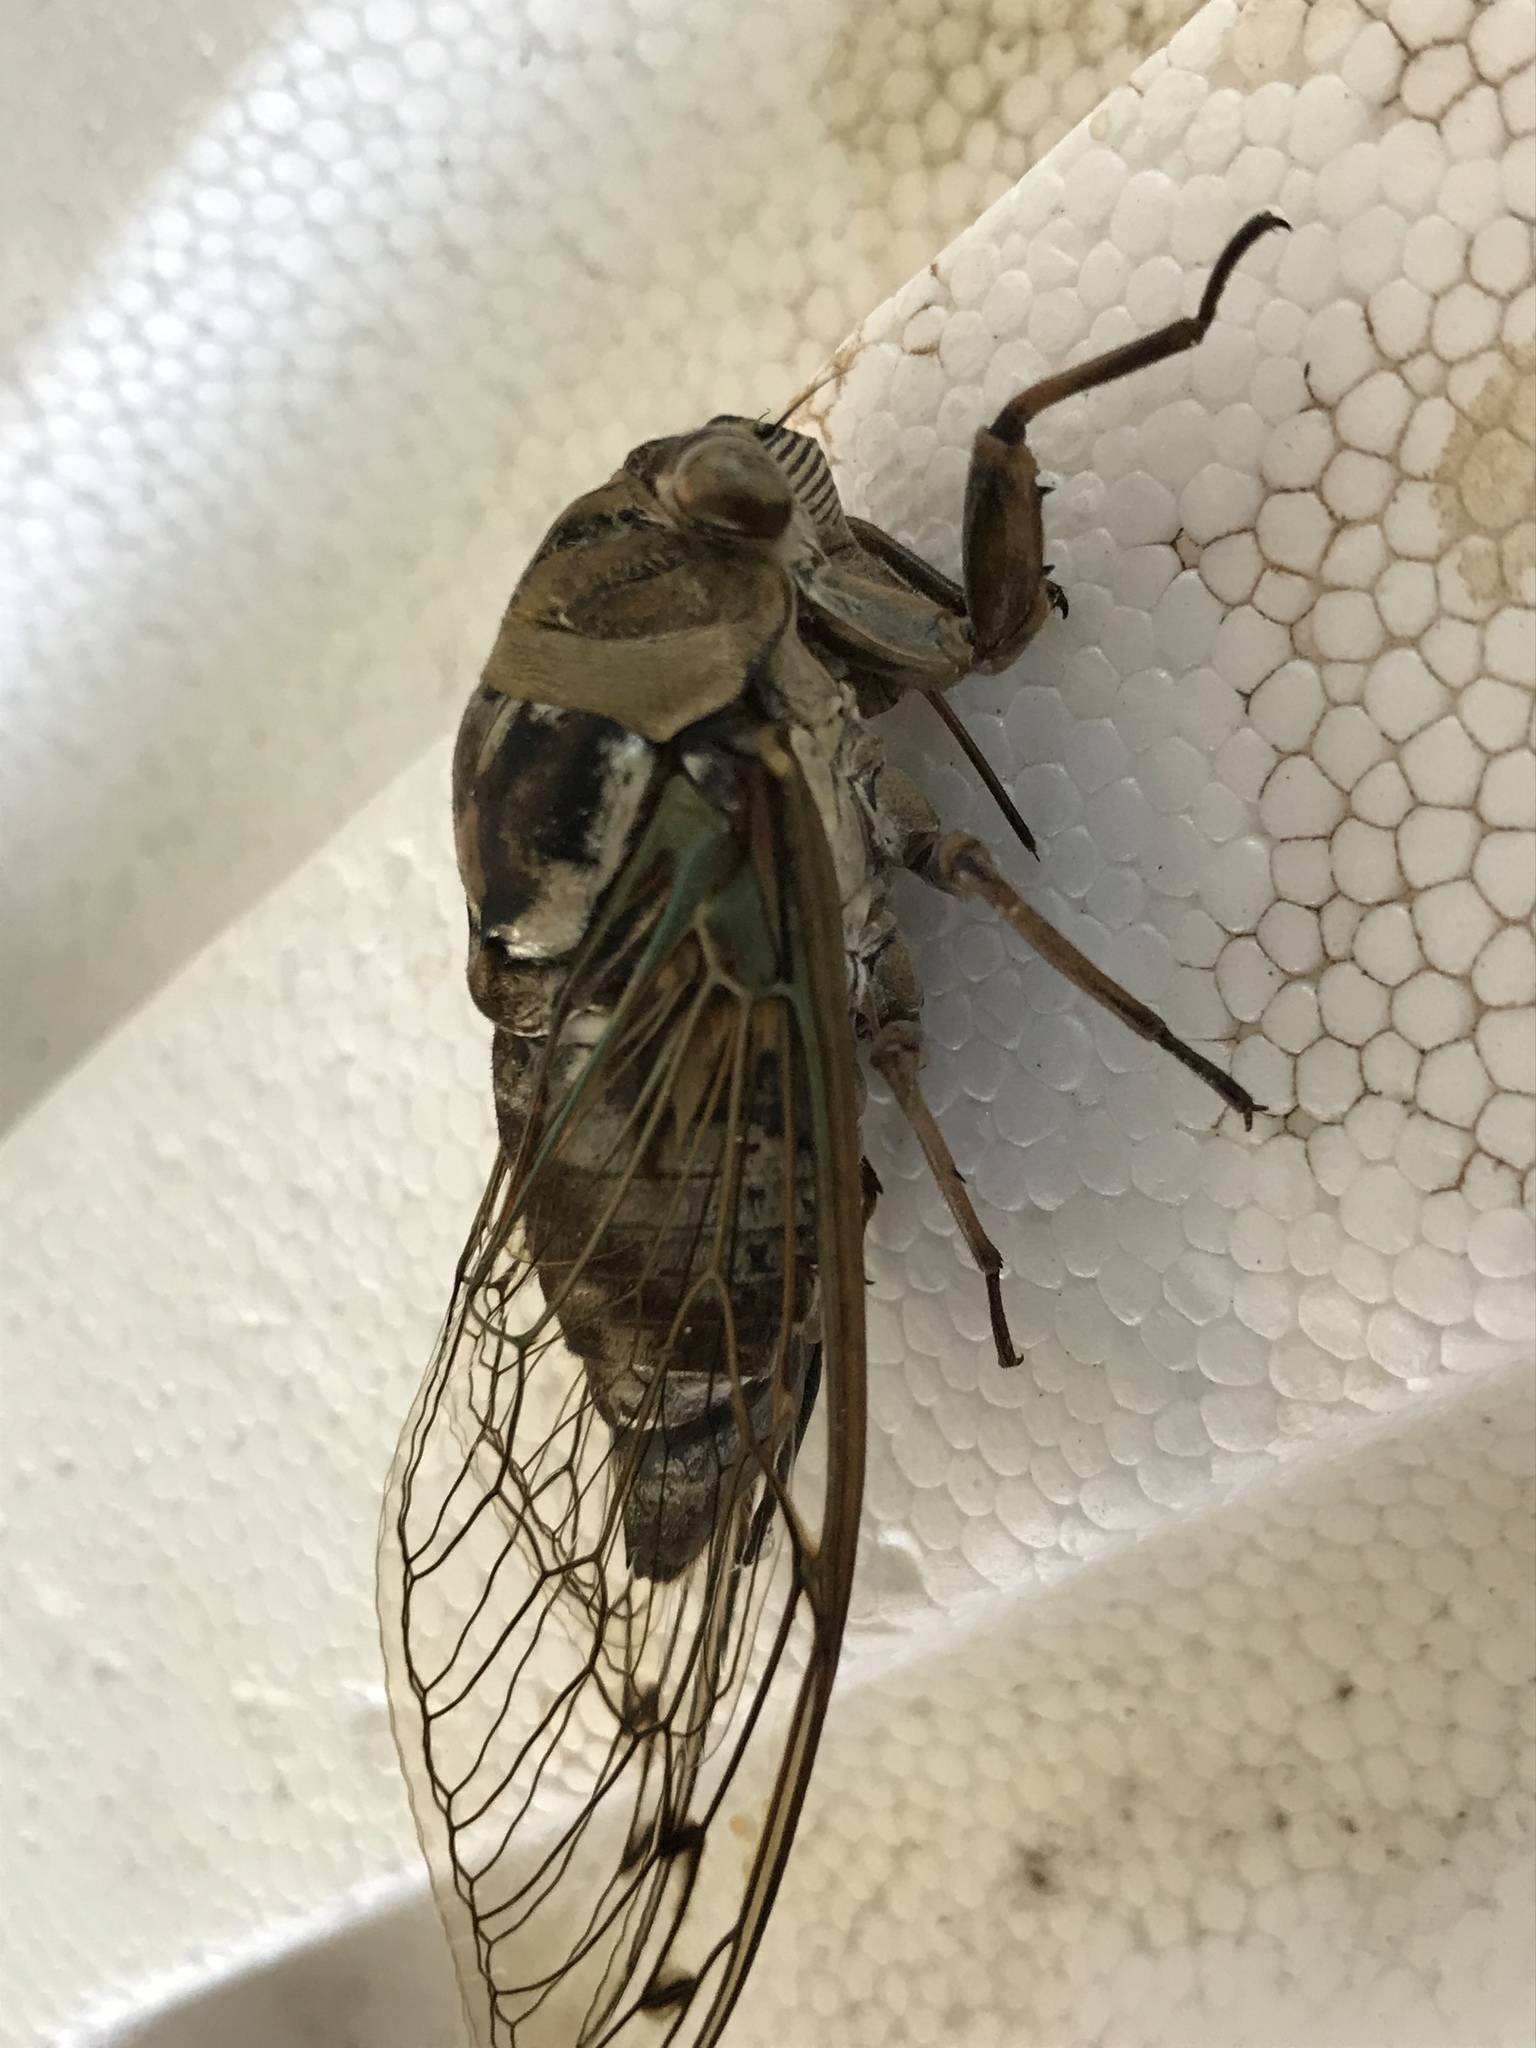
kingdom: Animalia
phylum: Arthropoda
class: Insecta
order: Hemiptera
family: Cicadidae
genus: Megatibicen
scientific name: Megatibicen resh
